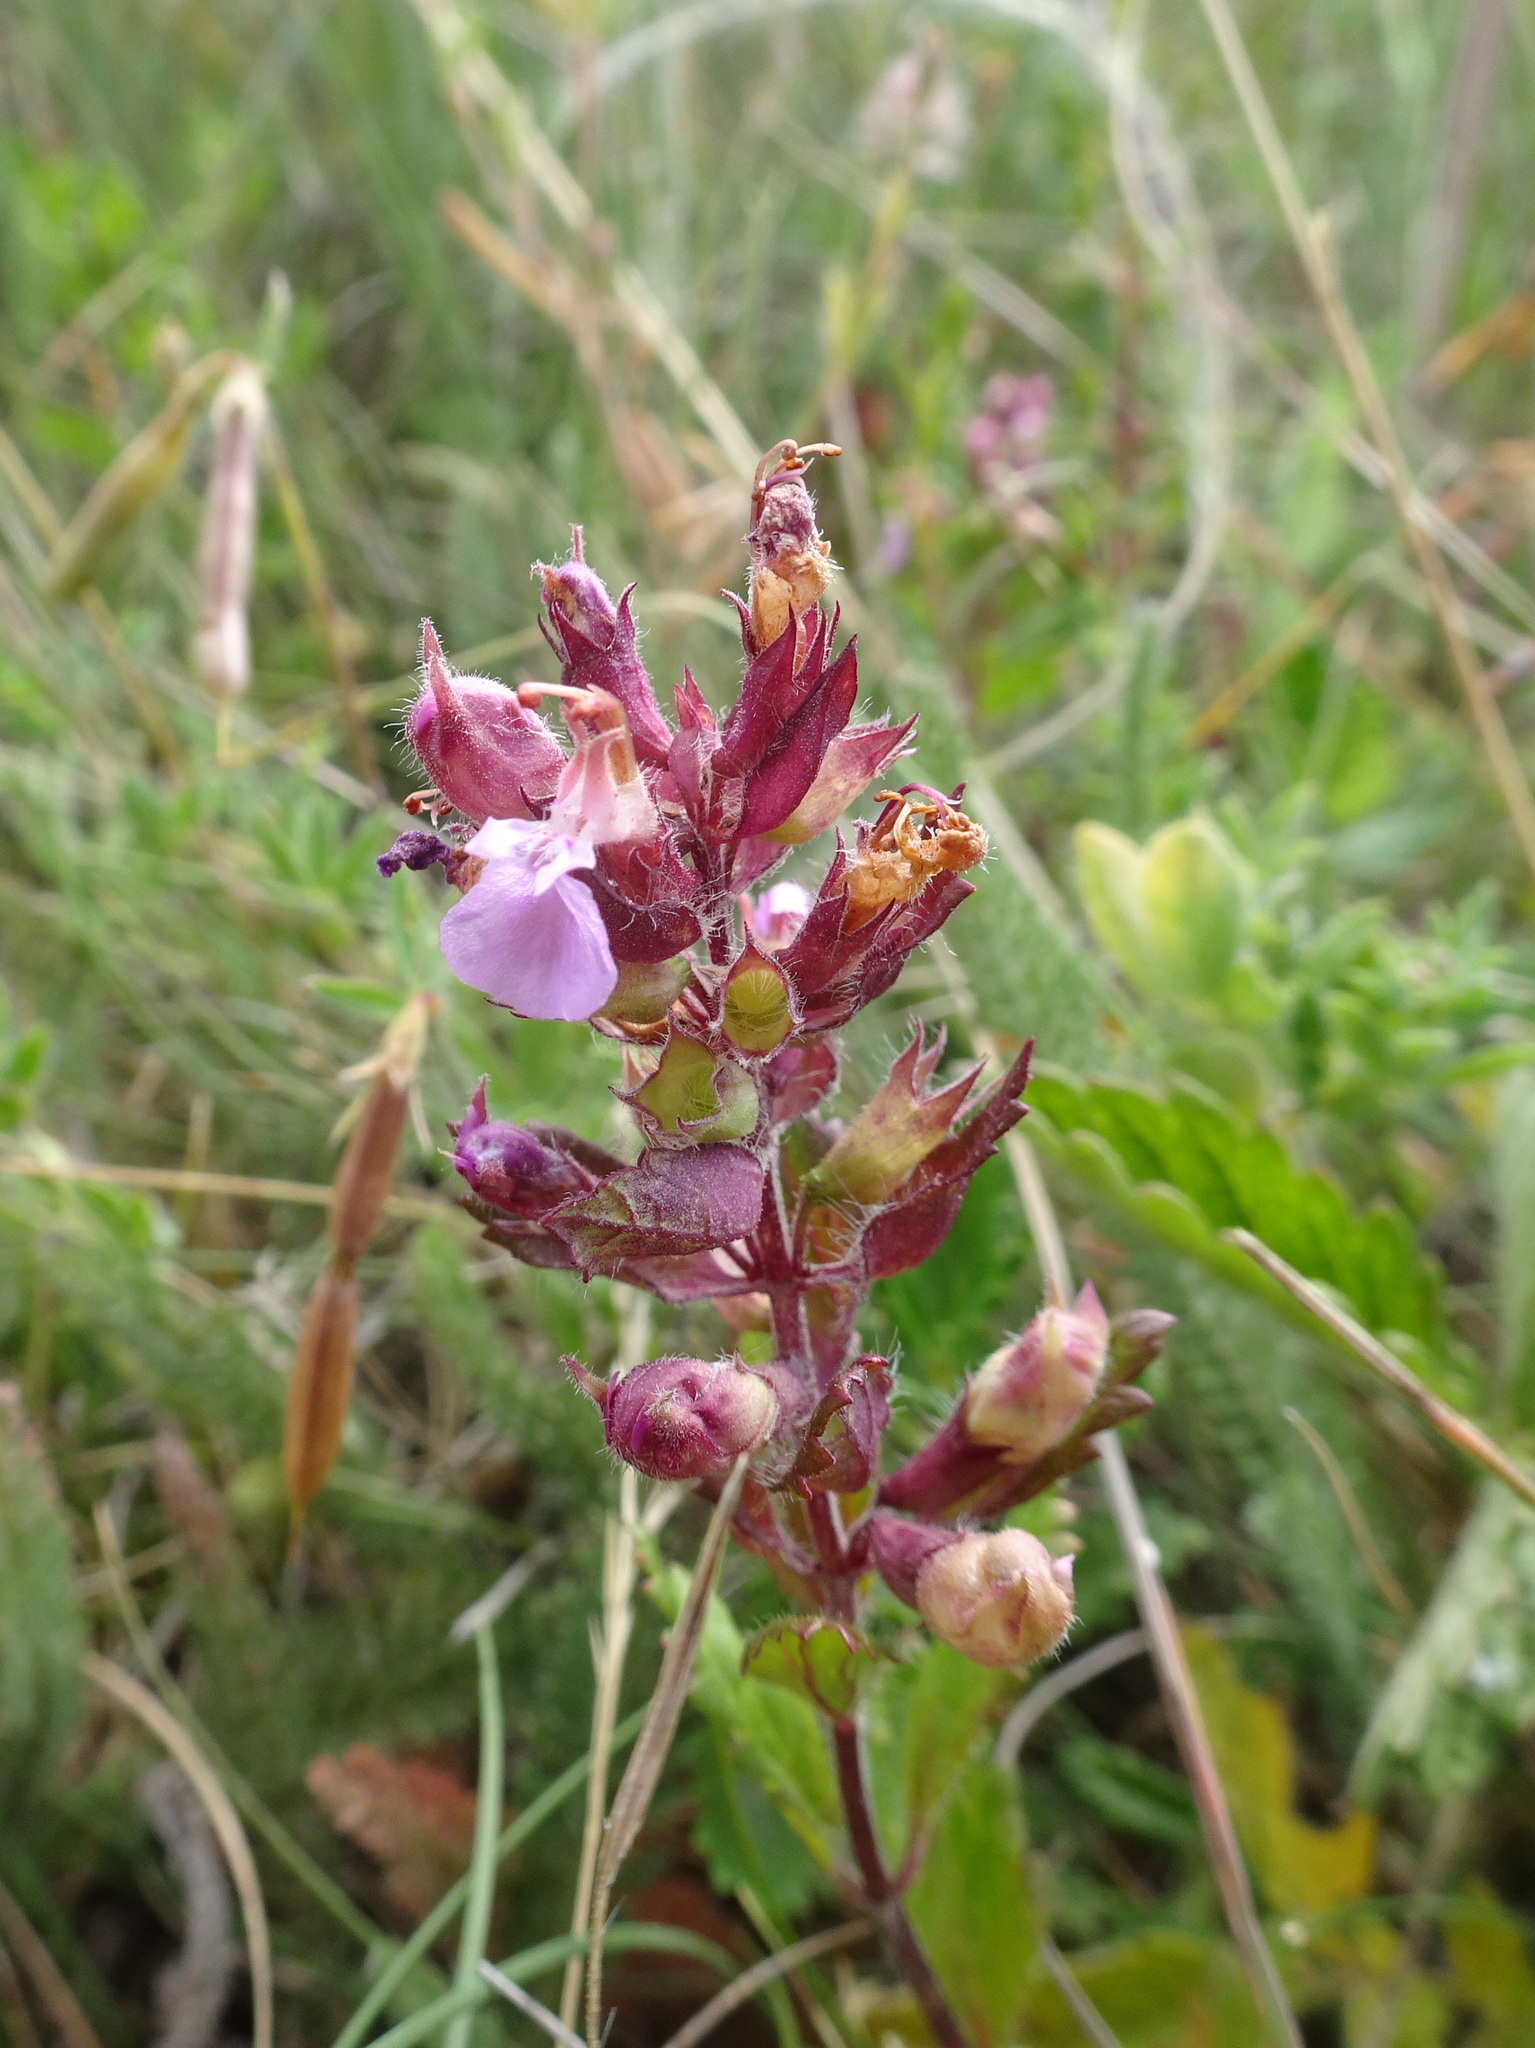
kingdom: Plantae
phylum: Tracheophyta
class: Magnoliopsida
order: Lamiales
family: Lamiaceae
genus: Teucrium
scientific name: Teucrium chamaedrys
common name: Wall germander
